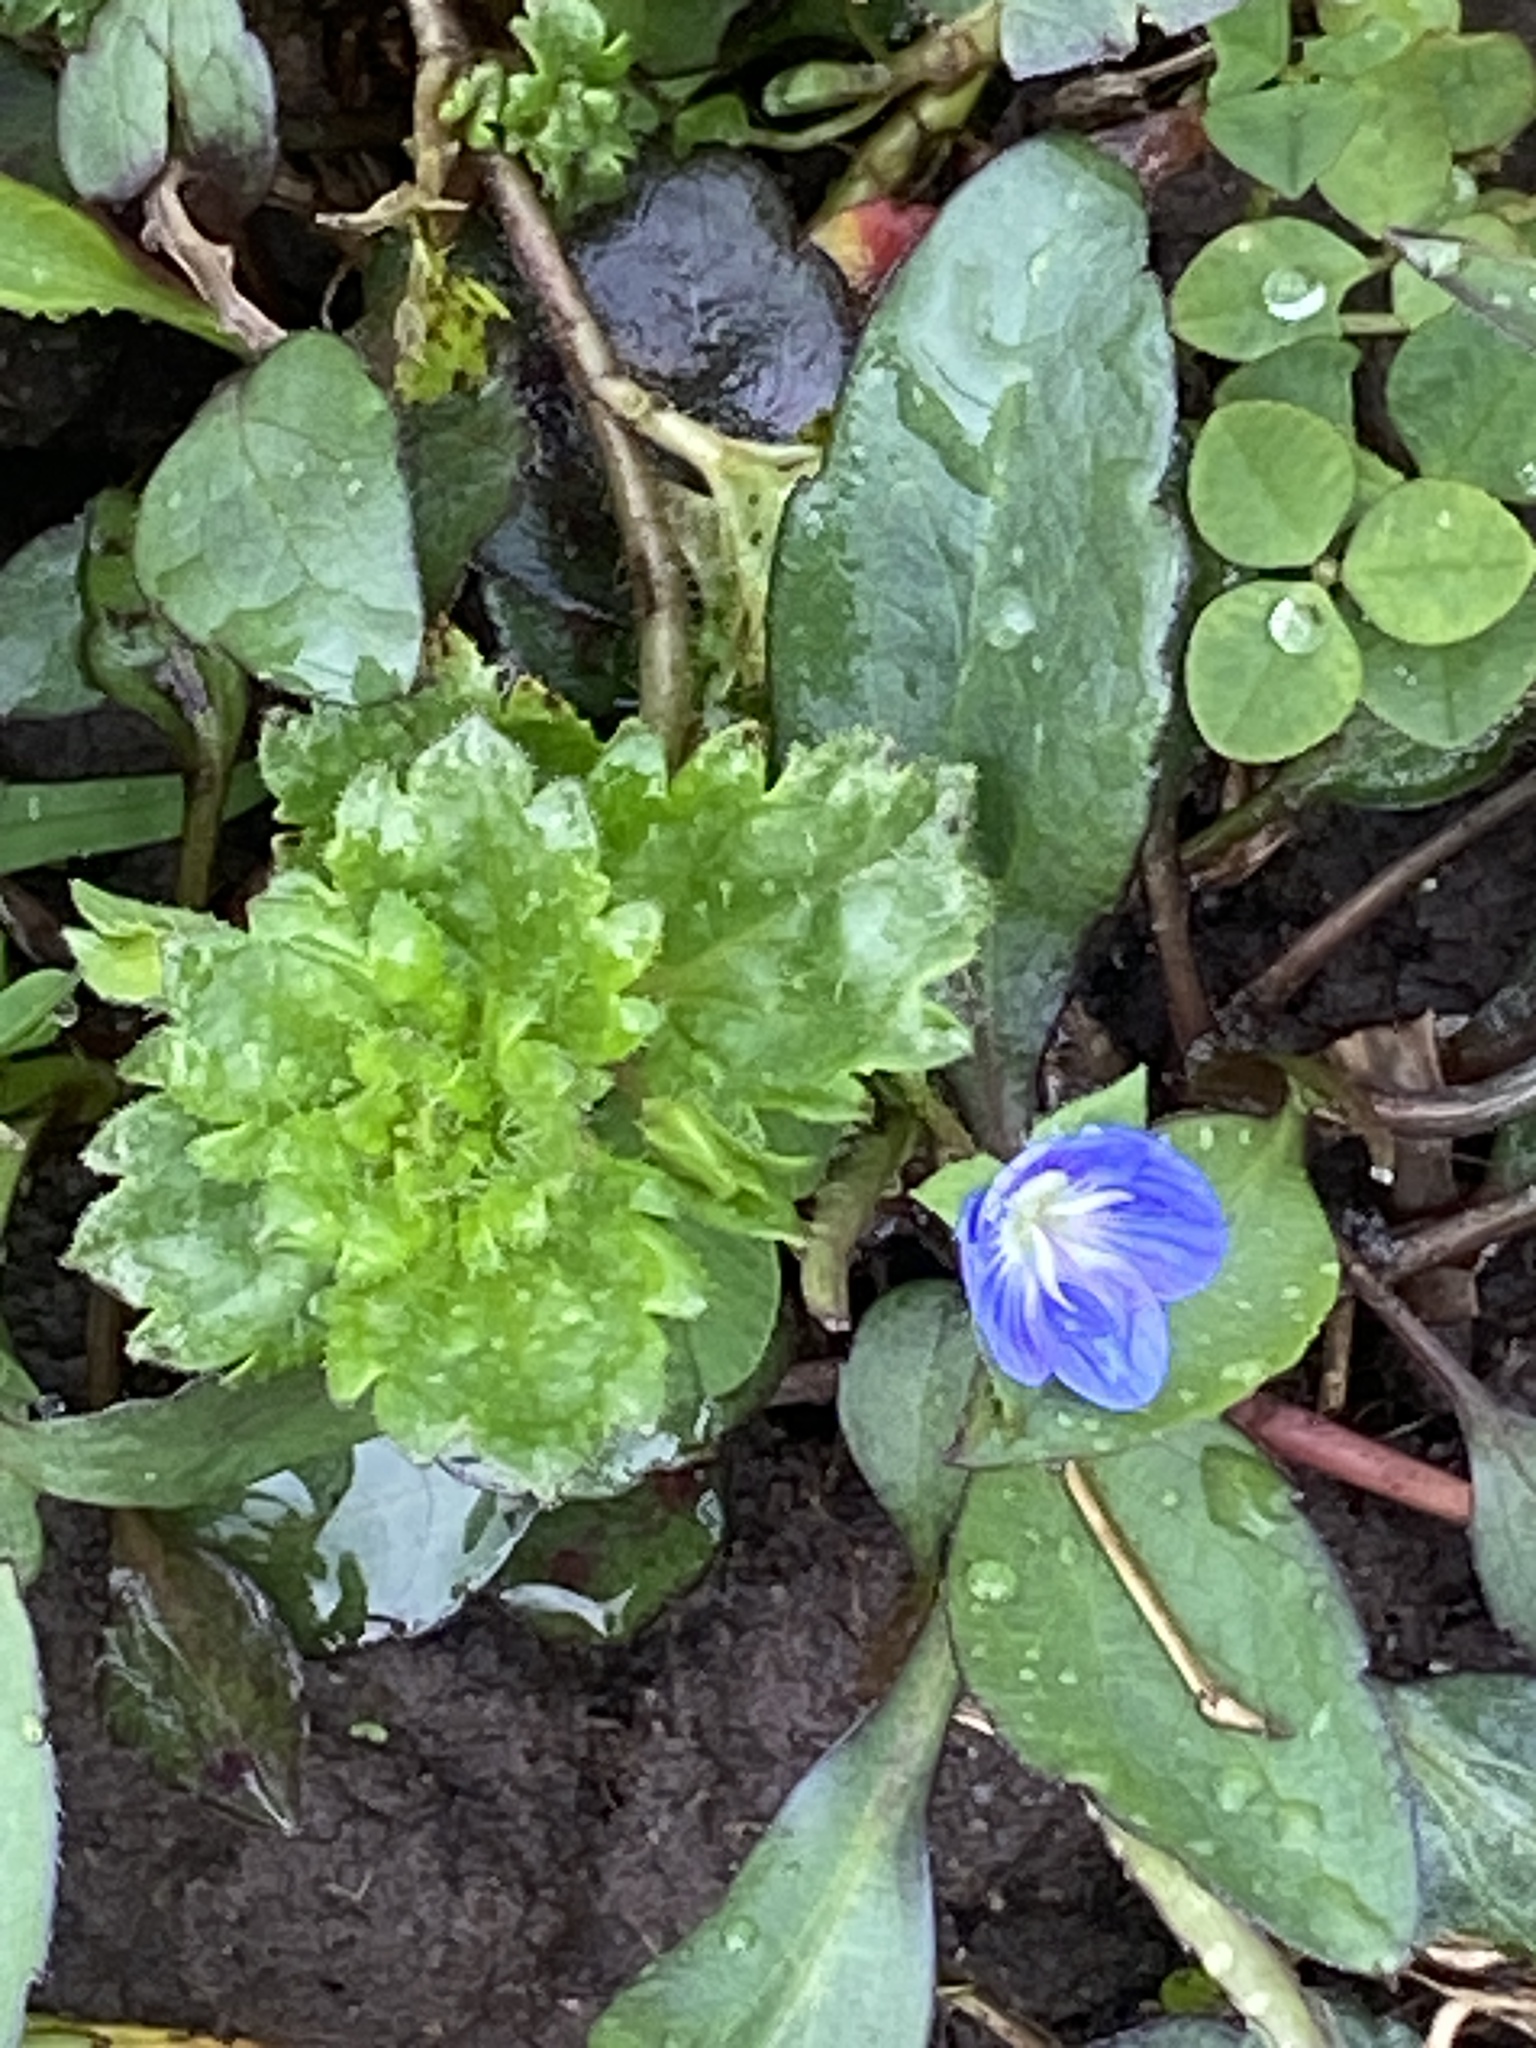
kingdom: Plantae
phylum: Tracheophyta
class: Magnoliopsida
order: Lamiales
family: Plantaginaceae
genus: Veronica
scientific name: Veronica persica
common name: Common field-speedwell
